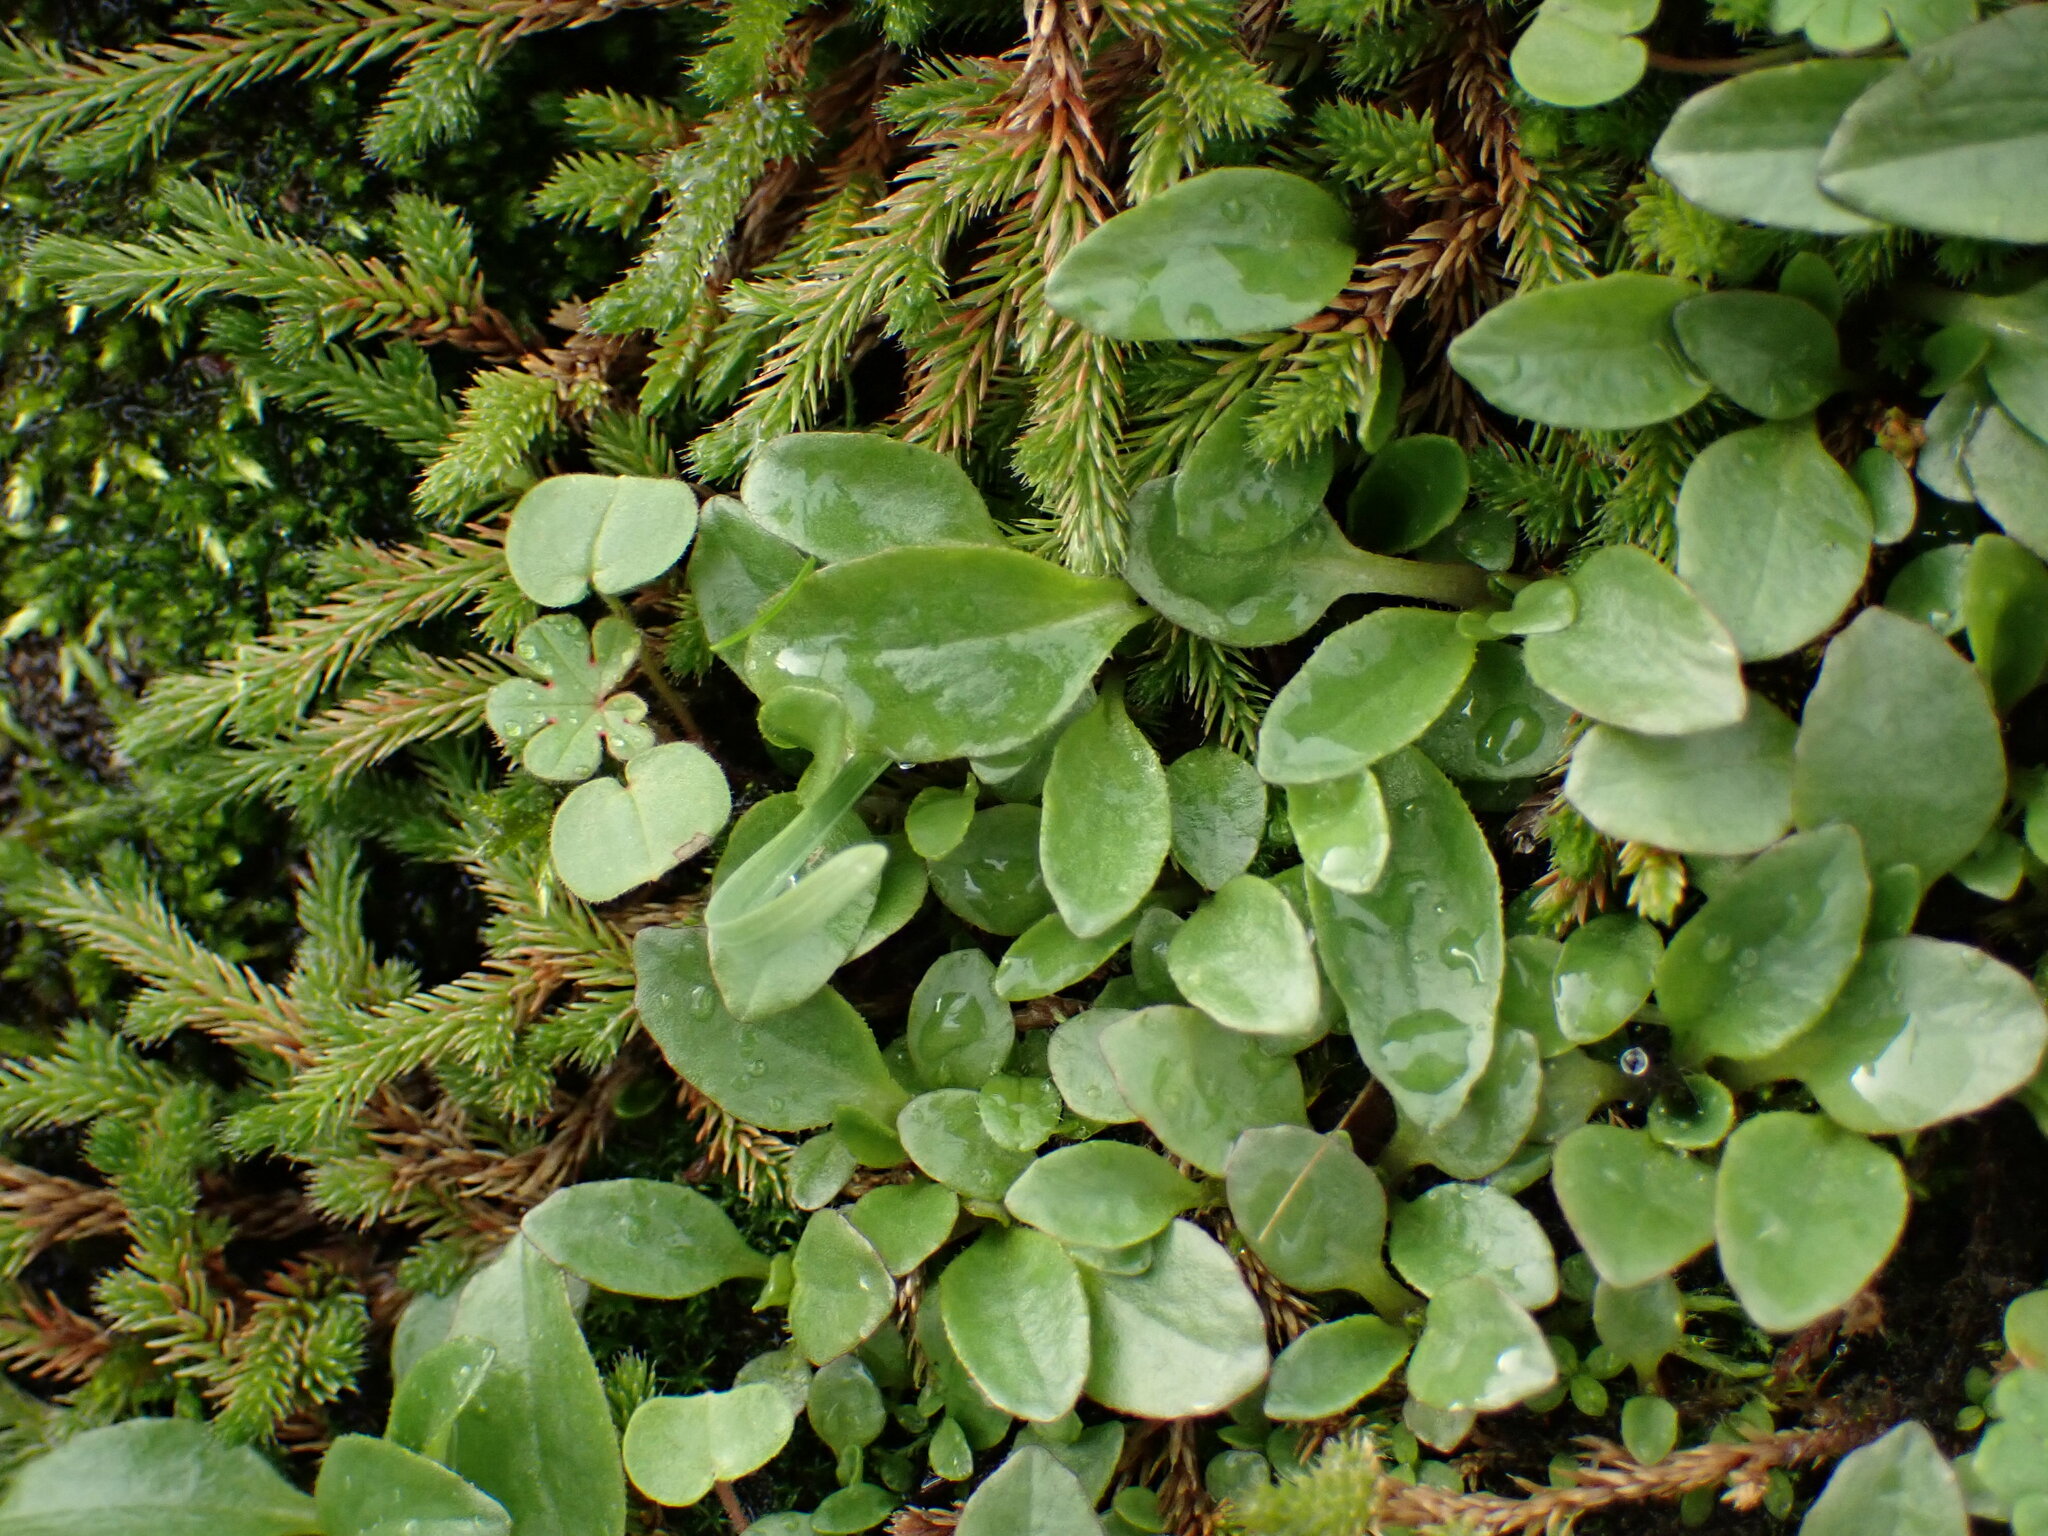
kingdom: Plantae
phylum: Tracheophyta
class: Magnoliopsida
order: Saxifragales
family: Saxifragaceae
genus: Micranthes
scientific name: Micranthes integrifolia
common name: Wholeleaf saxifrage
